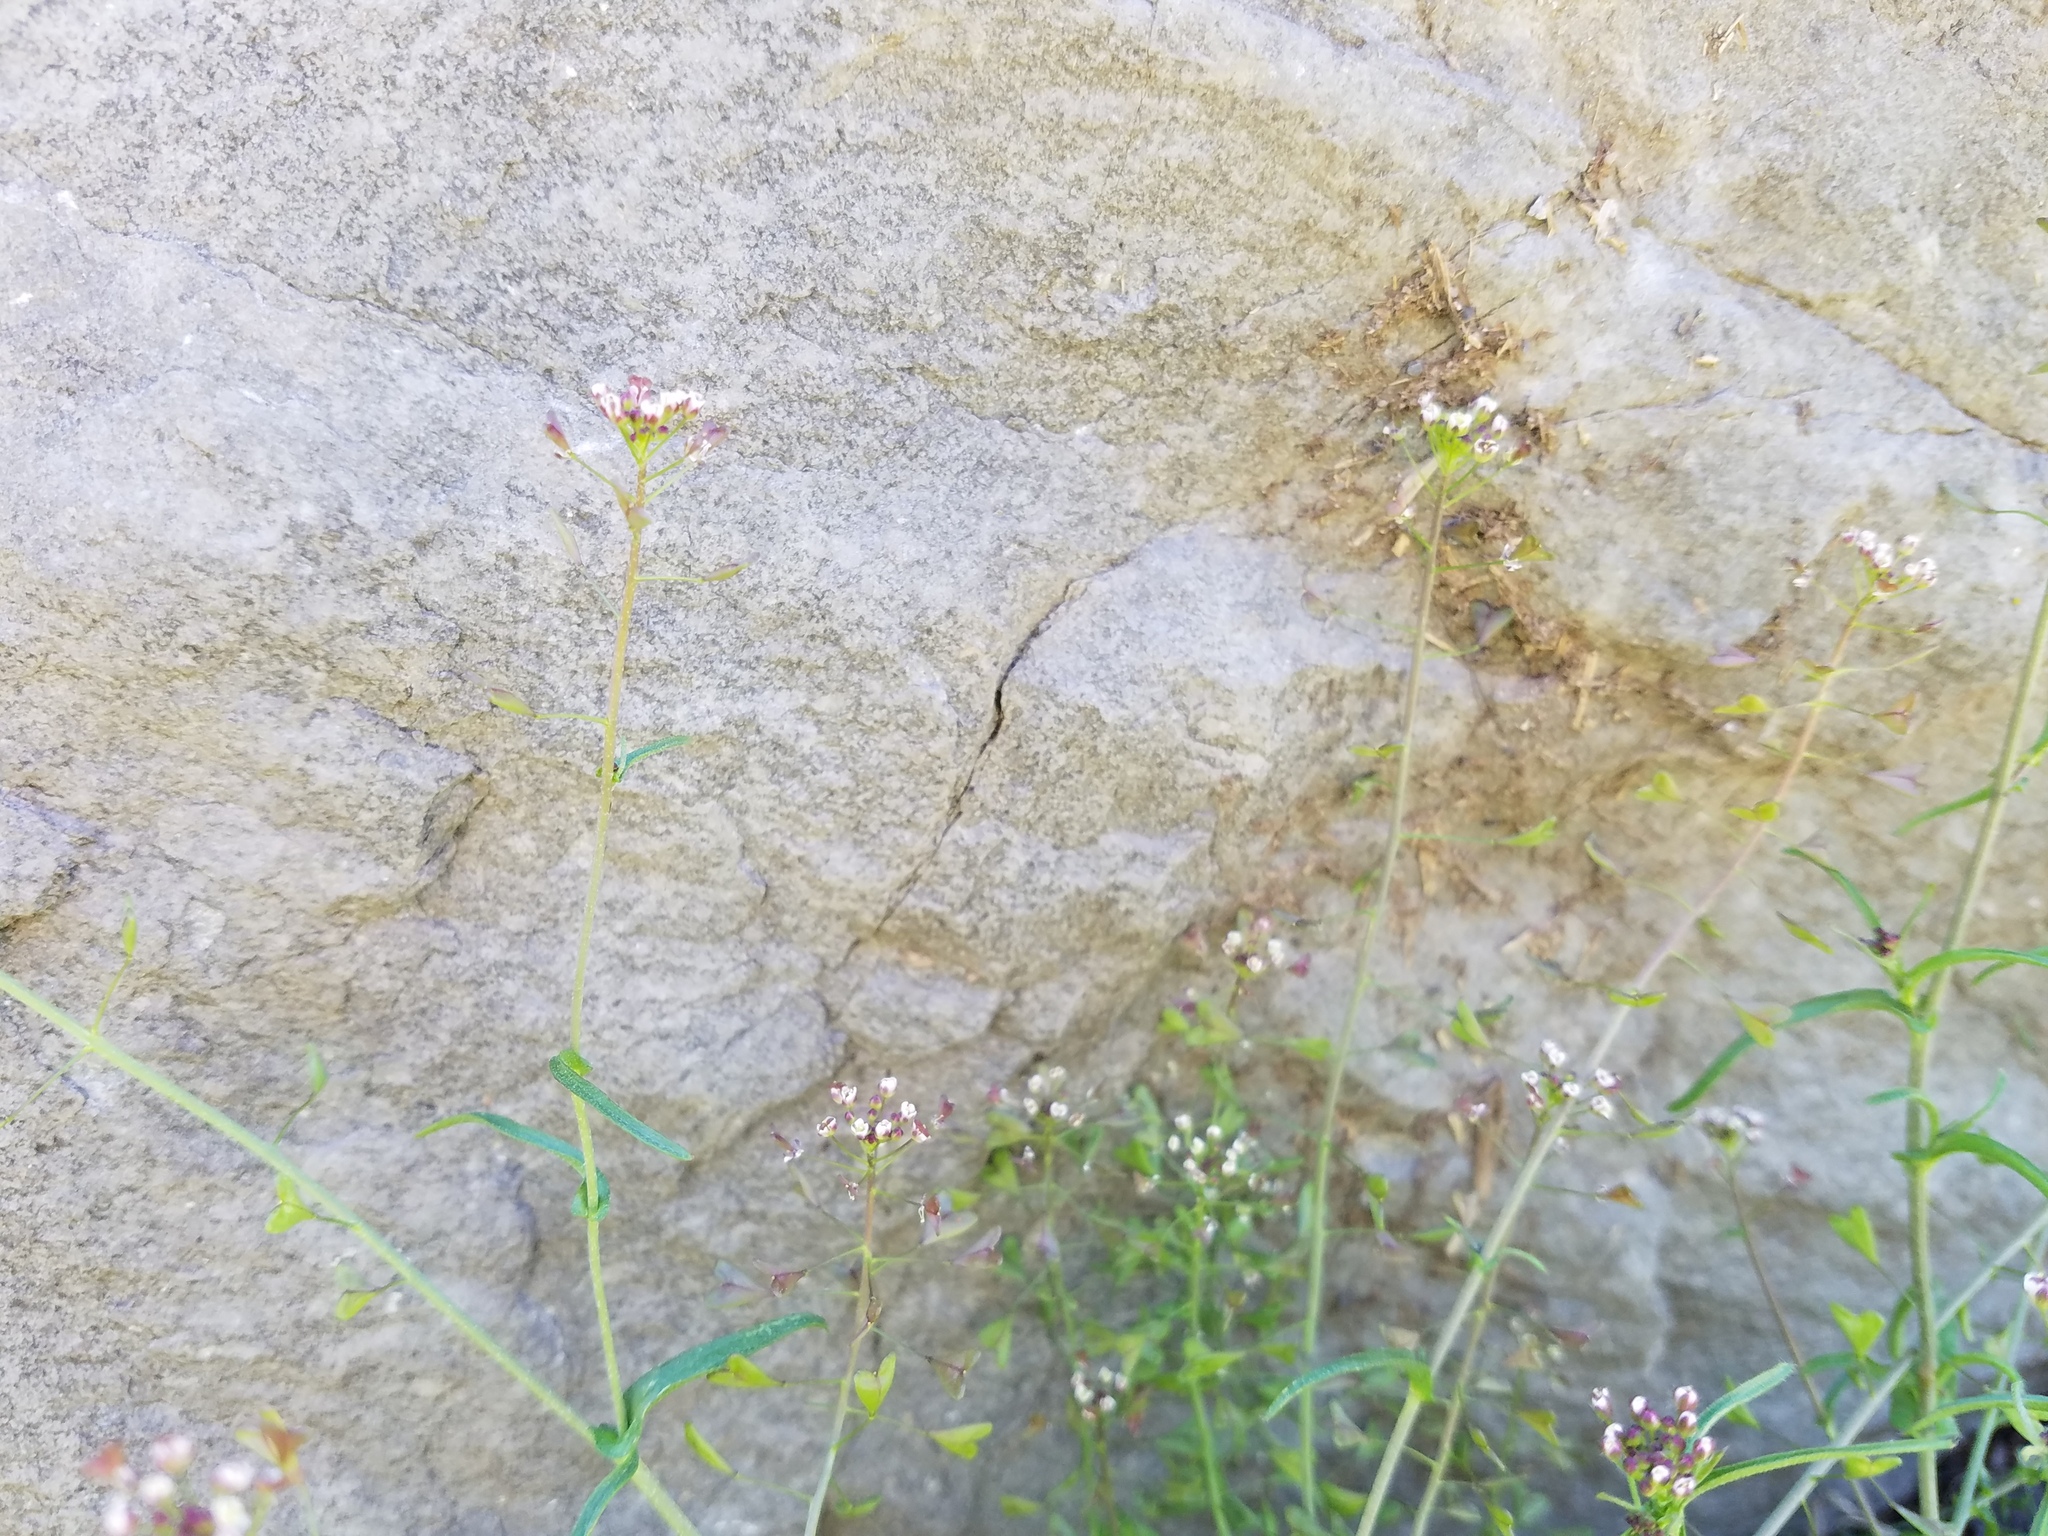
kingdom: Plantae
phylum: Tracheophyta
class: Magnoliopsida
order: Brassicales
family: Brassicaceae
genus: Capsella
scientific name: Capsella bursa-pastoris
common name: Shepherd's purse
